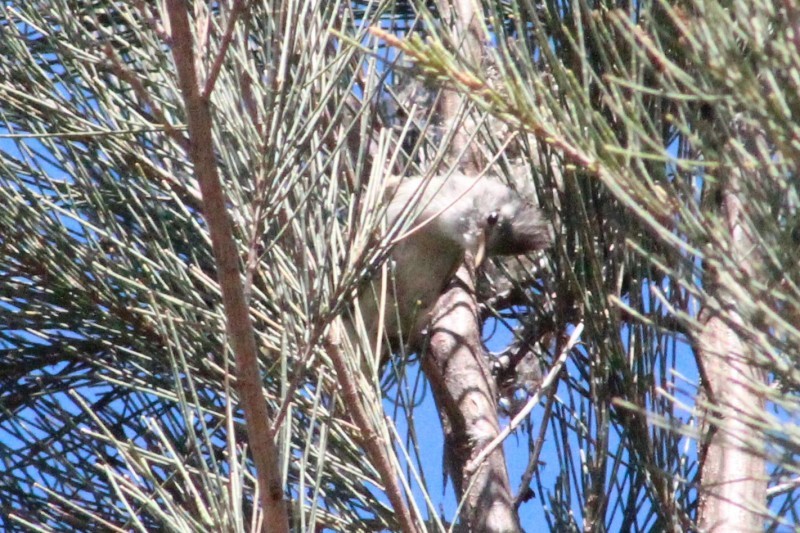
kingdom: Animalia
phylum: Chordata
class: Aves
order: Passeriformes
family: Tyrannidae
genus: Camptostoma
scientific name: Camptostoma obsoletum
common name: Southern beardless-tyrannulet
